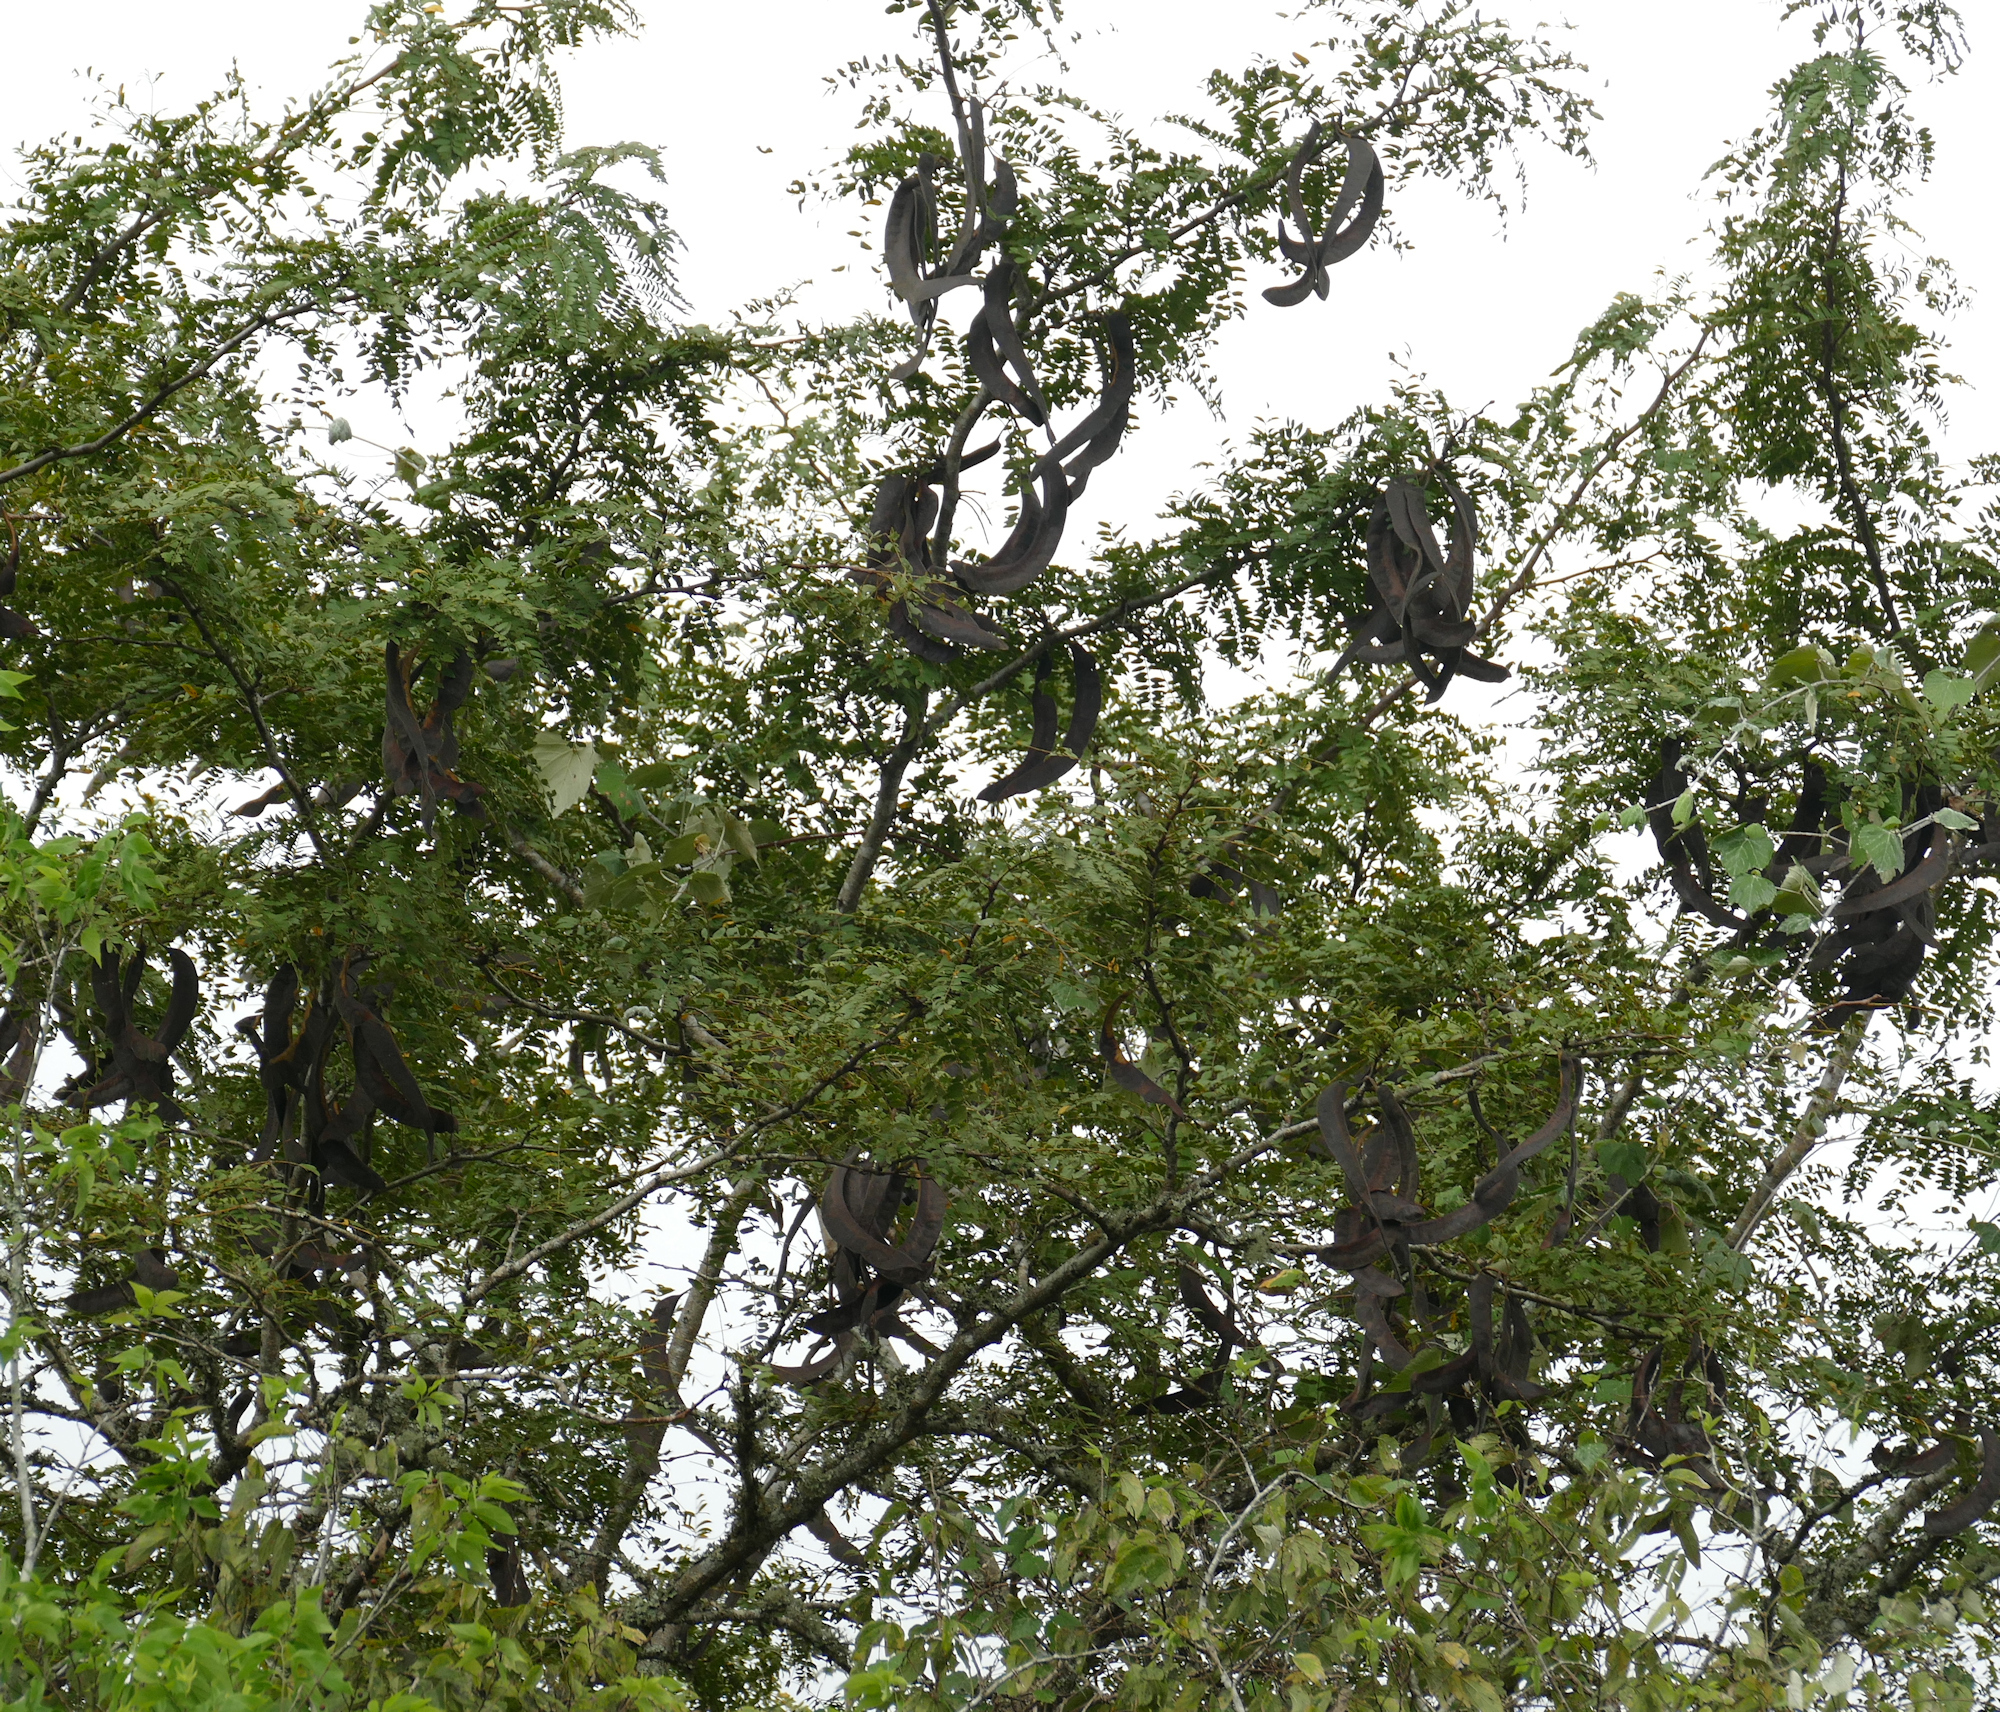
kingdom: Plantae
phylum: Tracheophyta
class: Magnoliopsida
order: Fabales
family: Fabaceae
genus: Gleditsia
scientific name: Gleditsia triacanthos
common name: Common honeylocust
